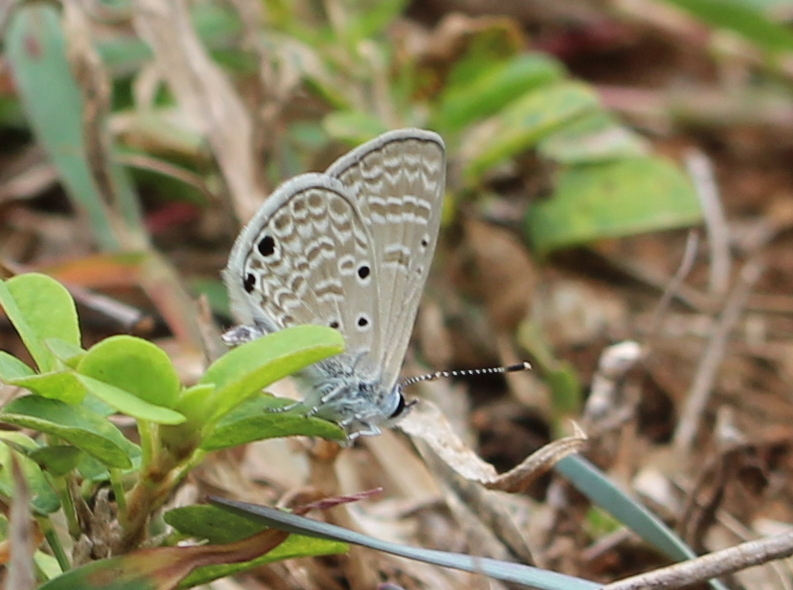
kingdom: Animalia
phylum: Arthropoda
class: Insecta
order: Lepidoptera
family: Lycaenidae
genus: Azanus
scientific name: Azanus ubaldus
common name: Desert babul blue
